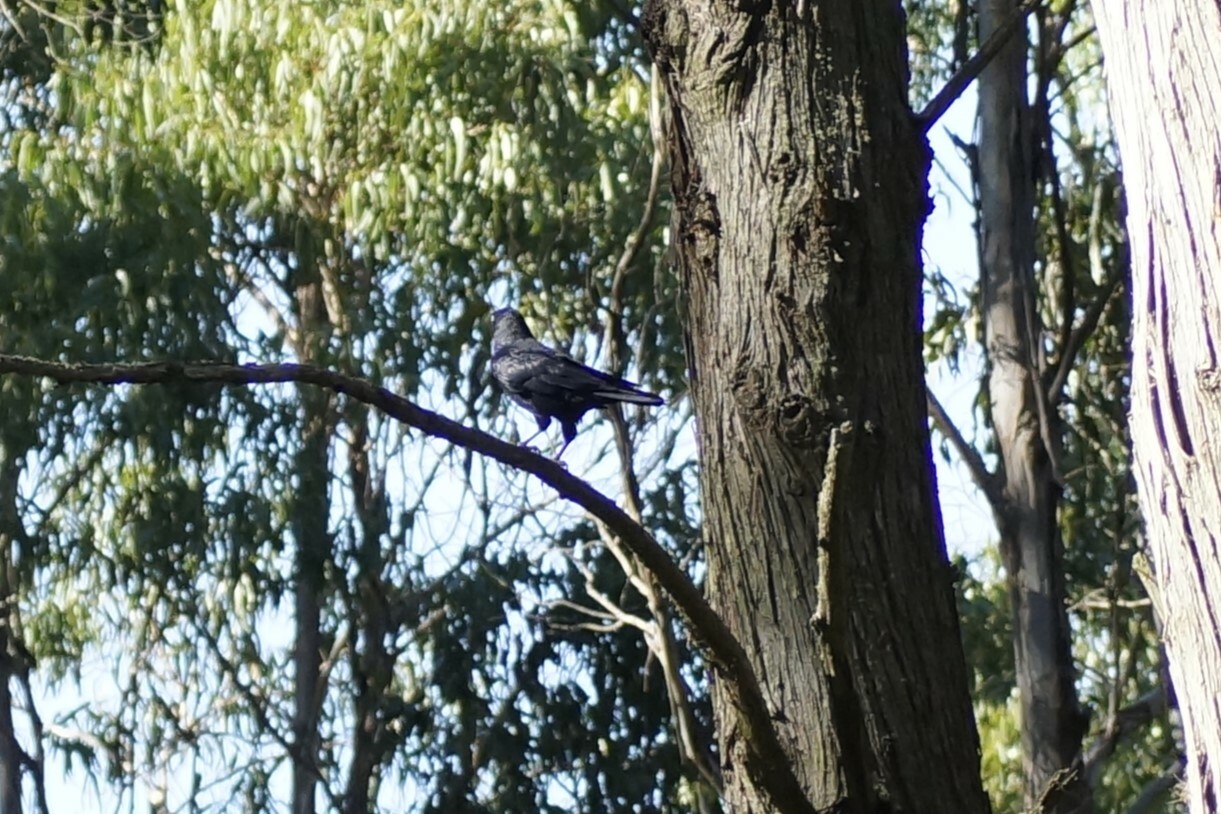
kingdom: Animalia
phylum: Chordata
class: Aves
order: Passeriformes
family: Corvidae
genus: Corvus
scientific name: Corvus tasmanicus
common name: Forest raven
